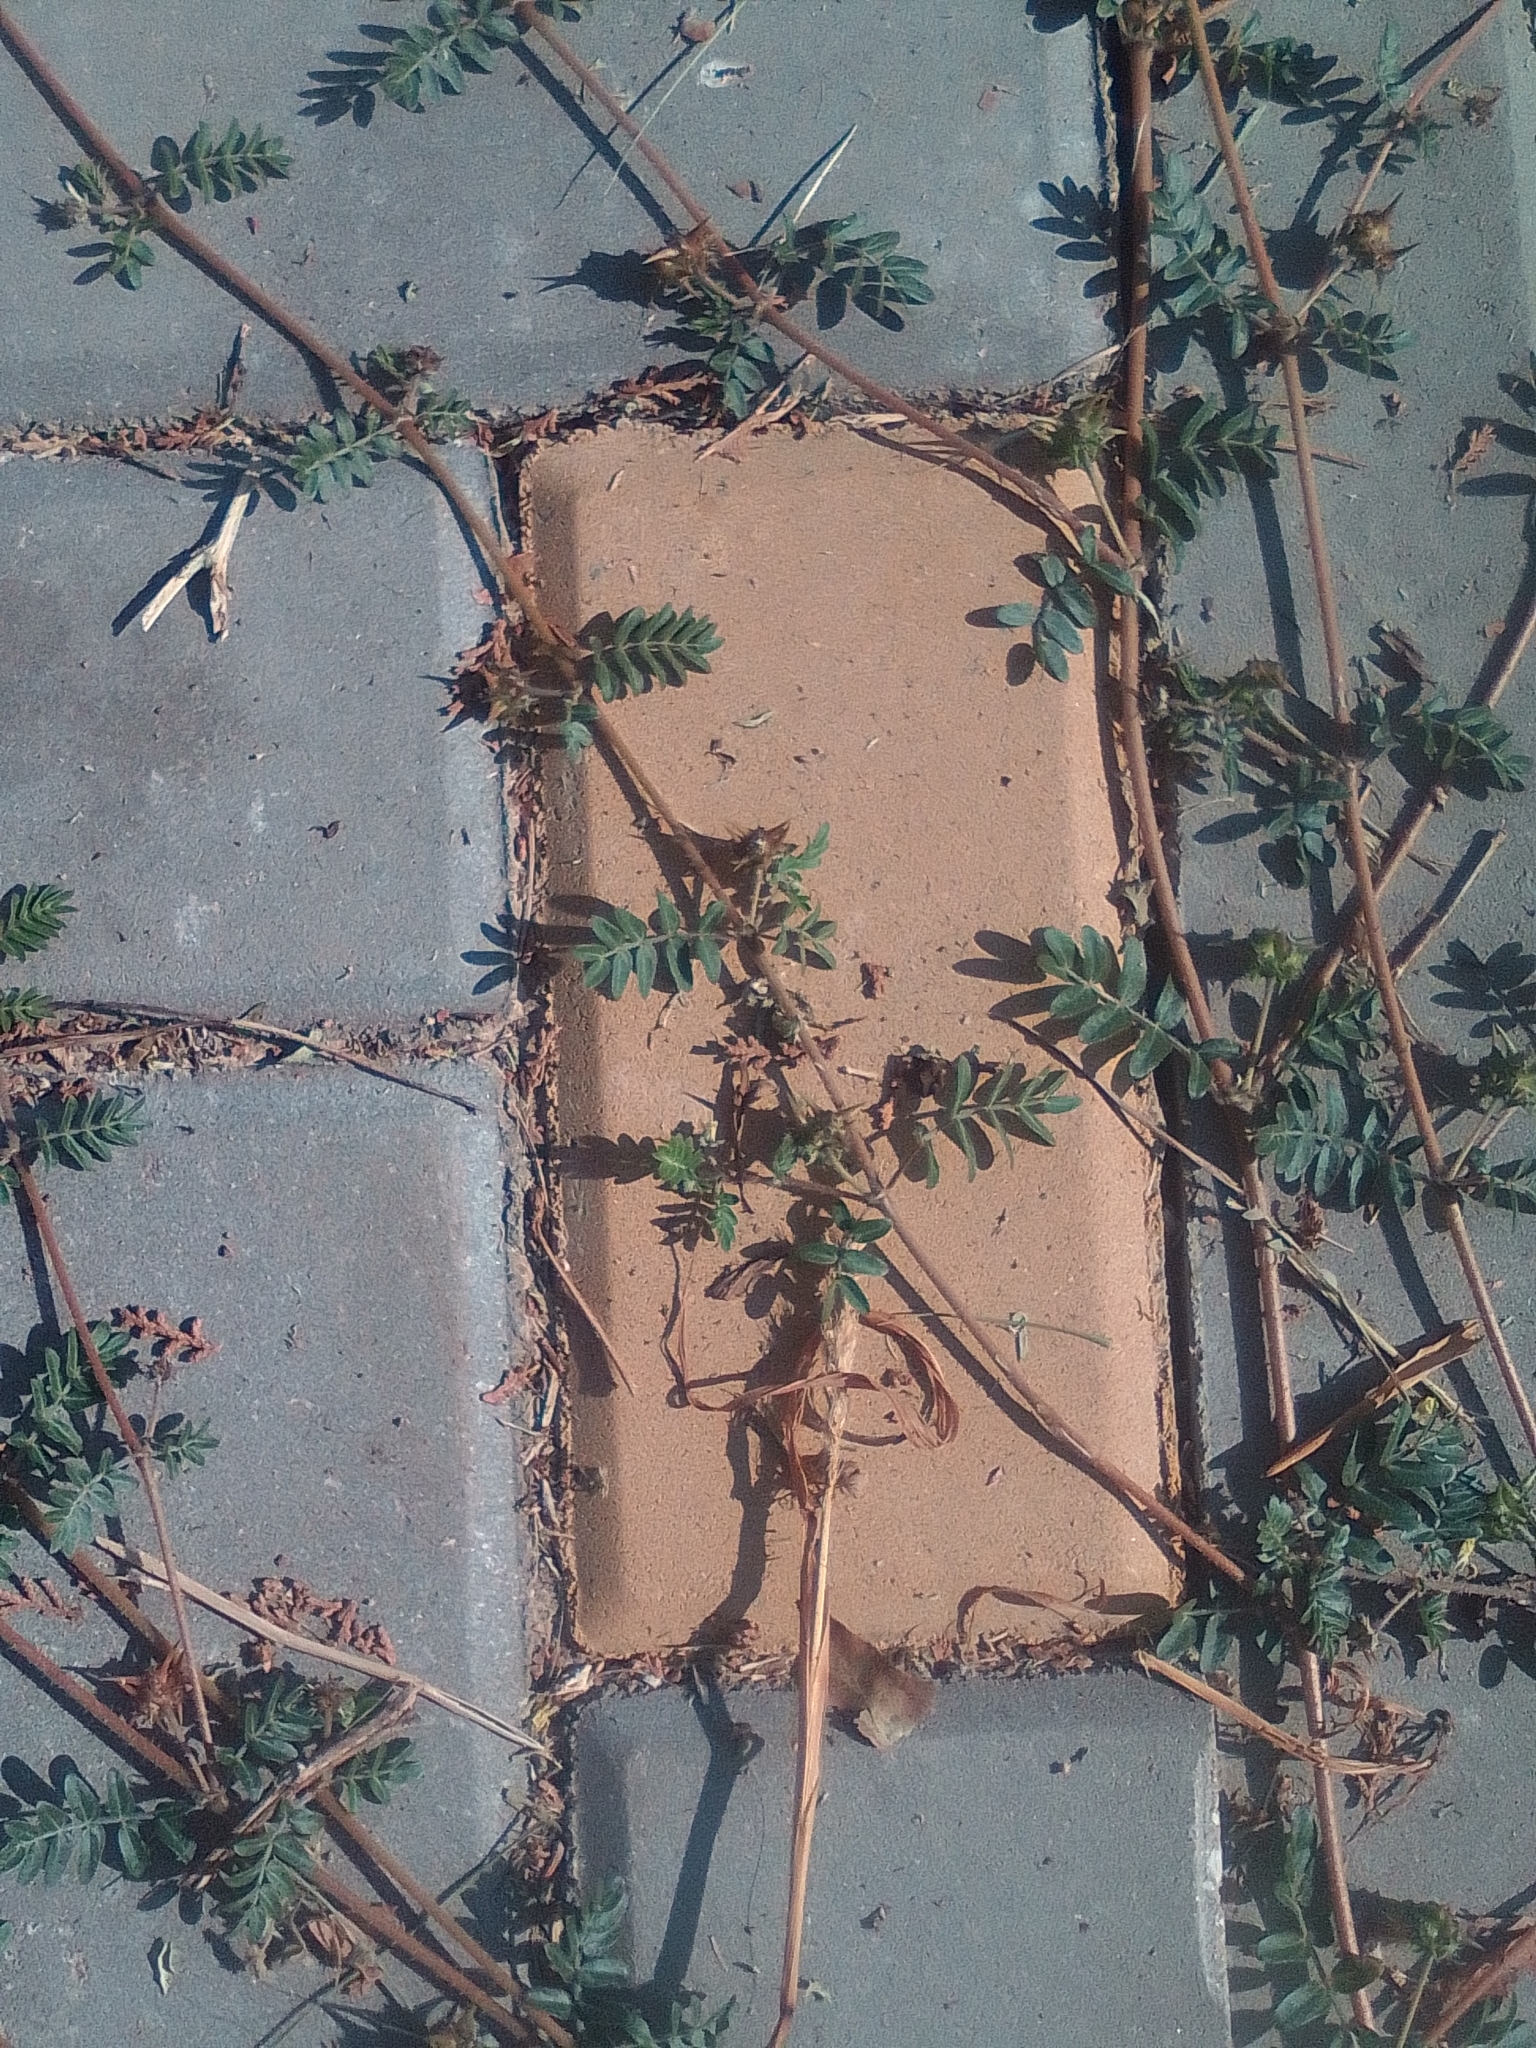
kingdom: Plantae
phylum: Tracheophyta
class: Magnoliopsida
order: Zygophyllales
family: Zygophyllaceae
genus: Tribulus
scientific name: Tribulus terrestris
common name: Puncturevine
